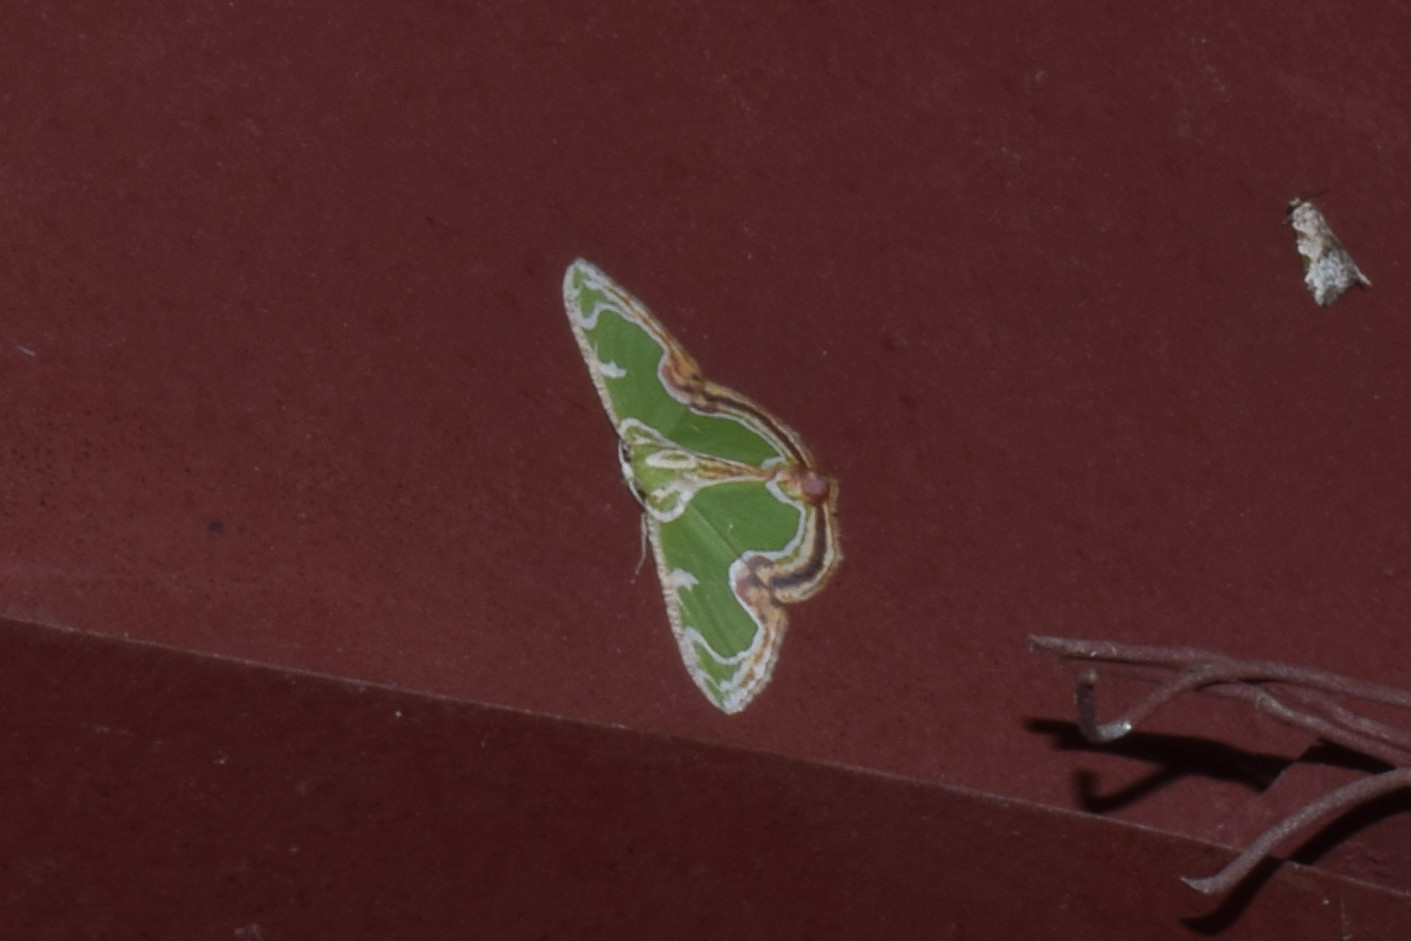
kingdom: Animalia
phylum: Arthropoda
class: Insecta
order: Lepidoptera
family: Geometridae
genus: Eucyclodes
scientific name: Eucyclodes sanguilineata
